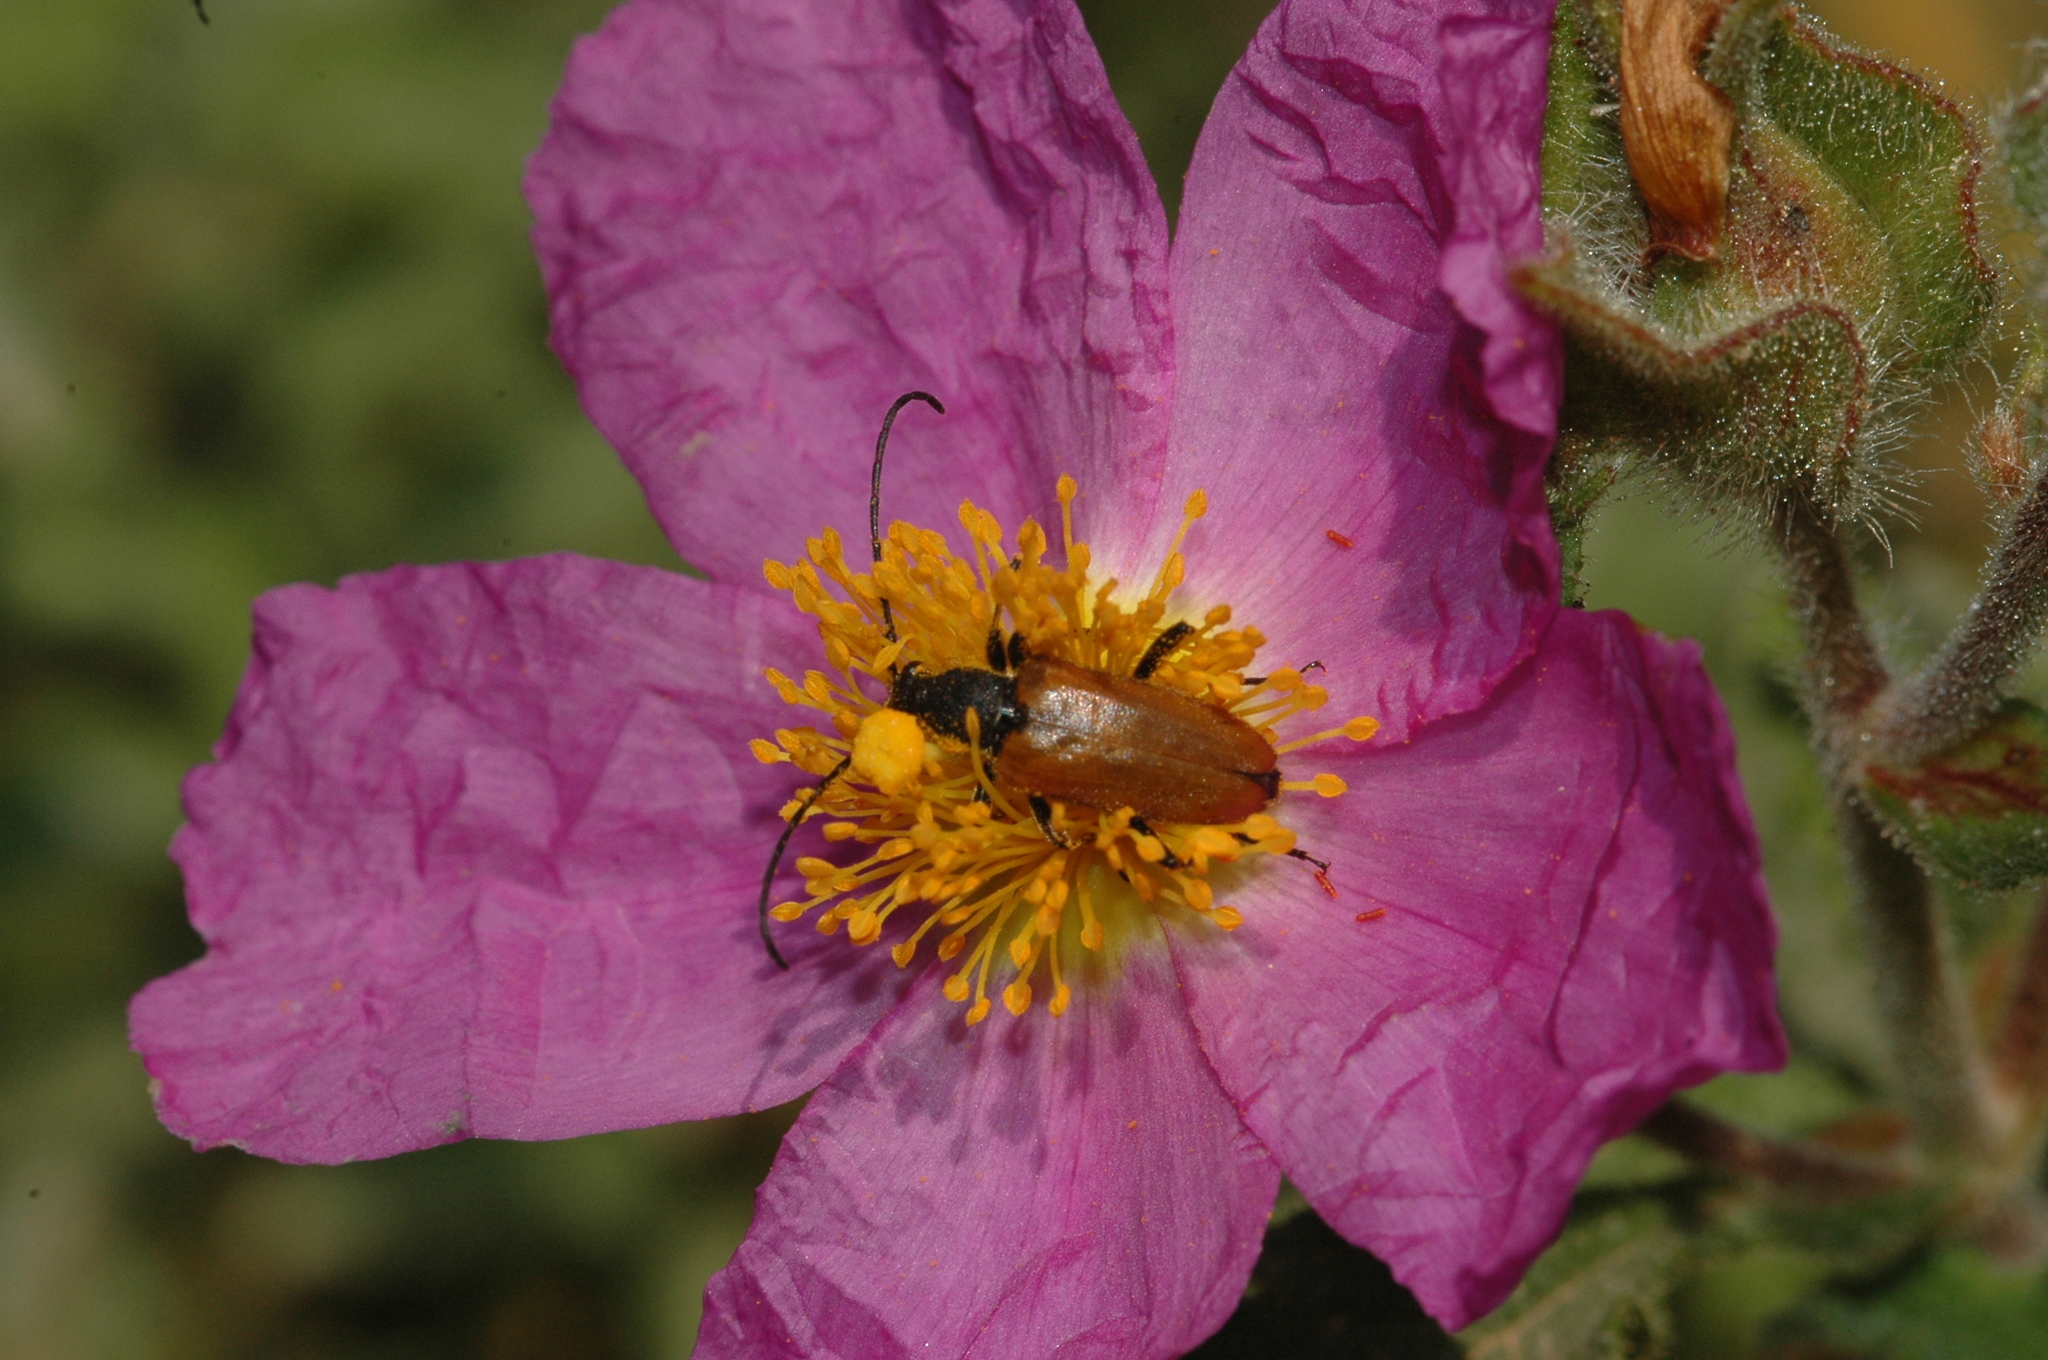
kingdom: Animalia
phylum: Arthropoda
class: Insecta
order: Coleoptera
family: Cerambycidae
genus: Stictoleptura
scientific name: Stictoleptura picticornis
